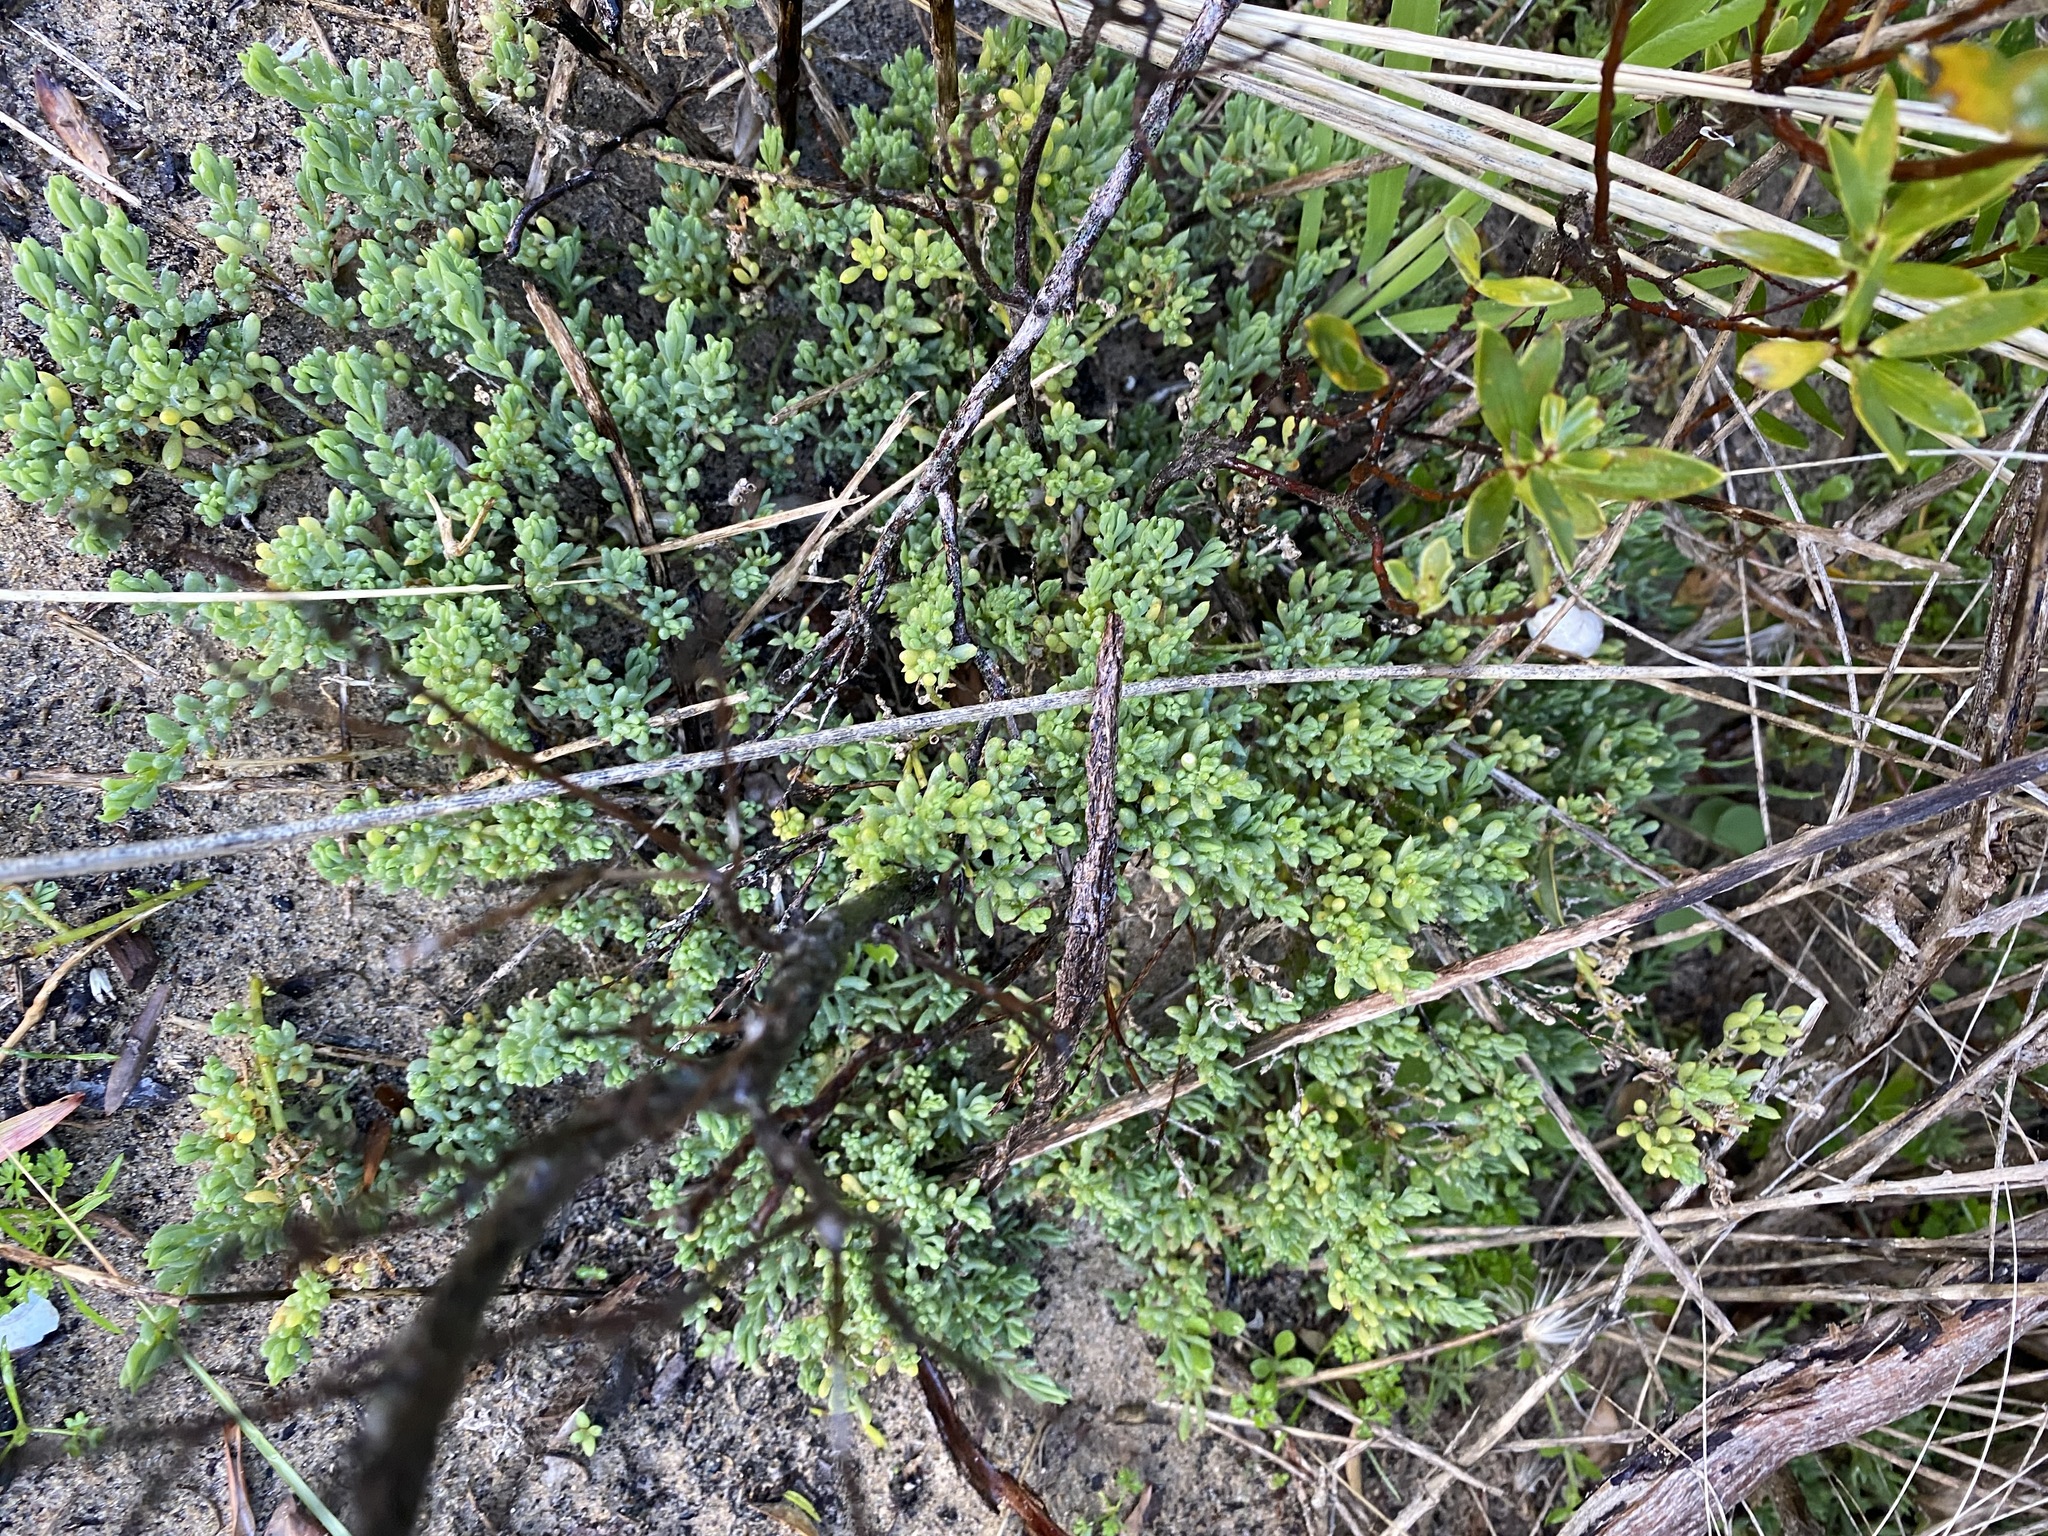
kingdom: Plantae
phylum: Tracheophyta
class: Magnoliopsida
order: Caryophyllales
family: Amaranthaceae
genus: Threlkeldia
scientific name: Threlkeldia diffusa
